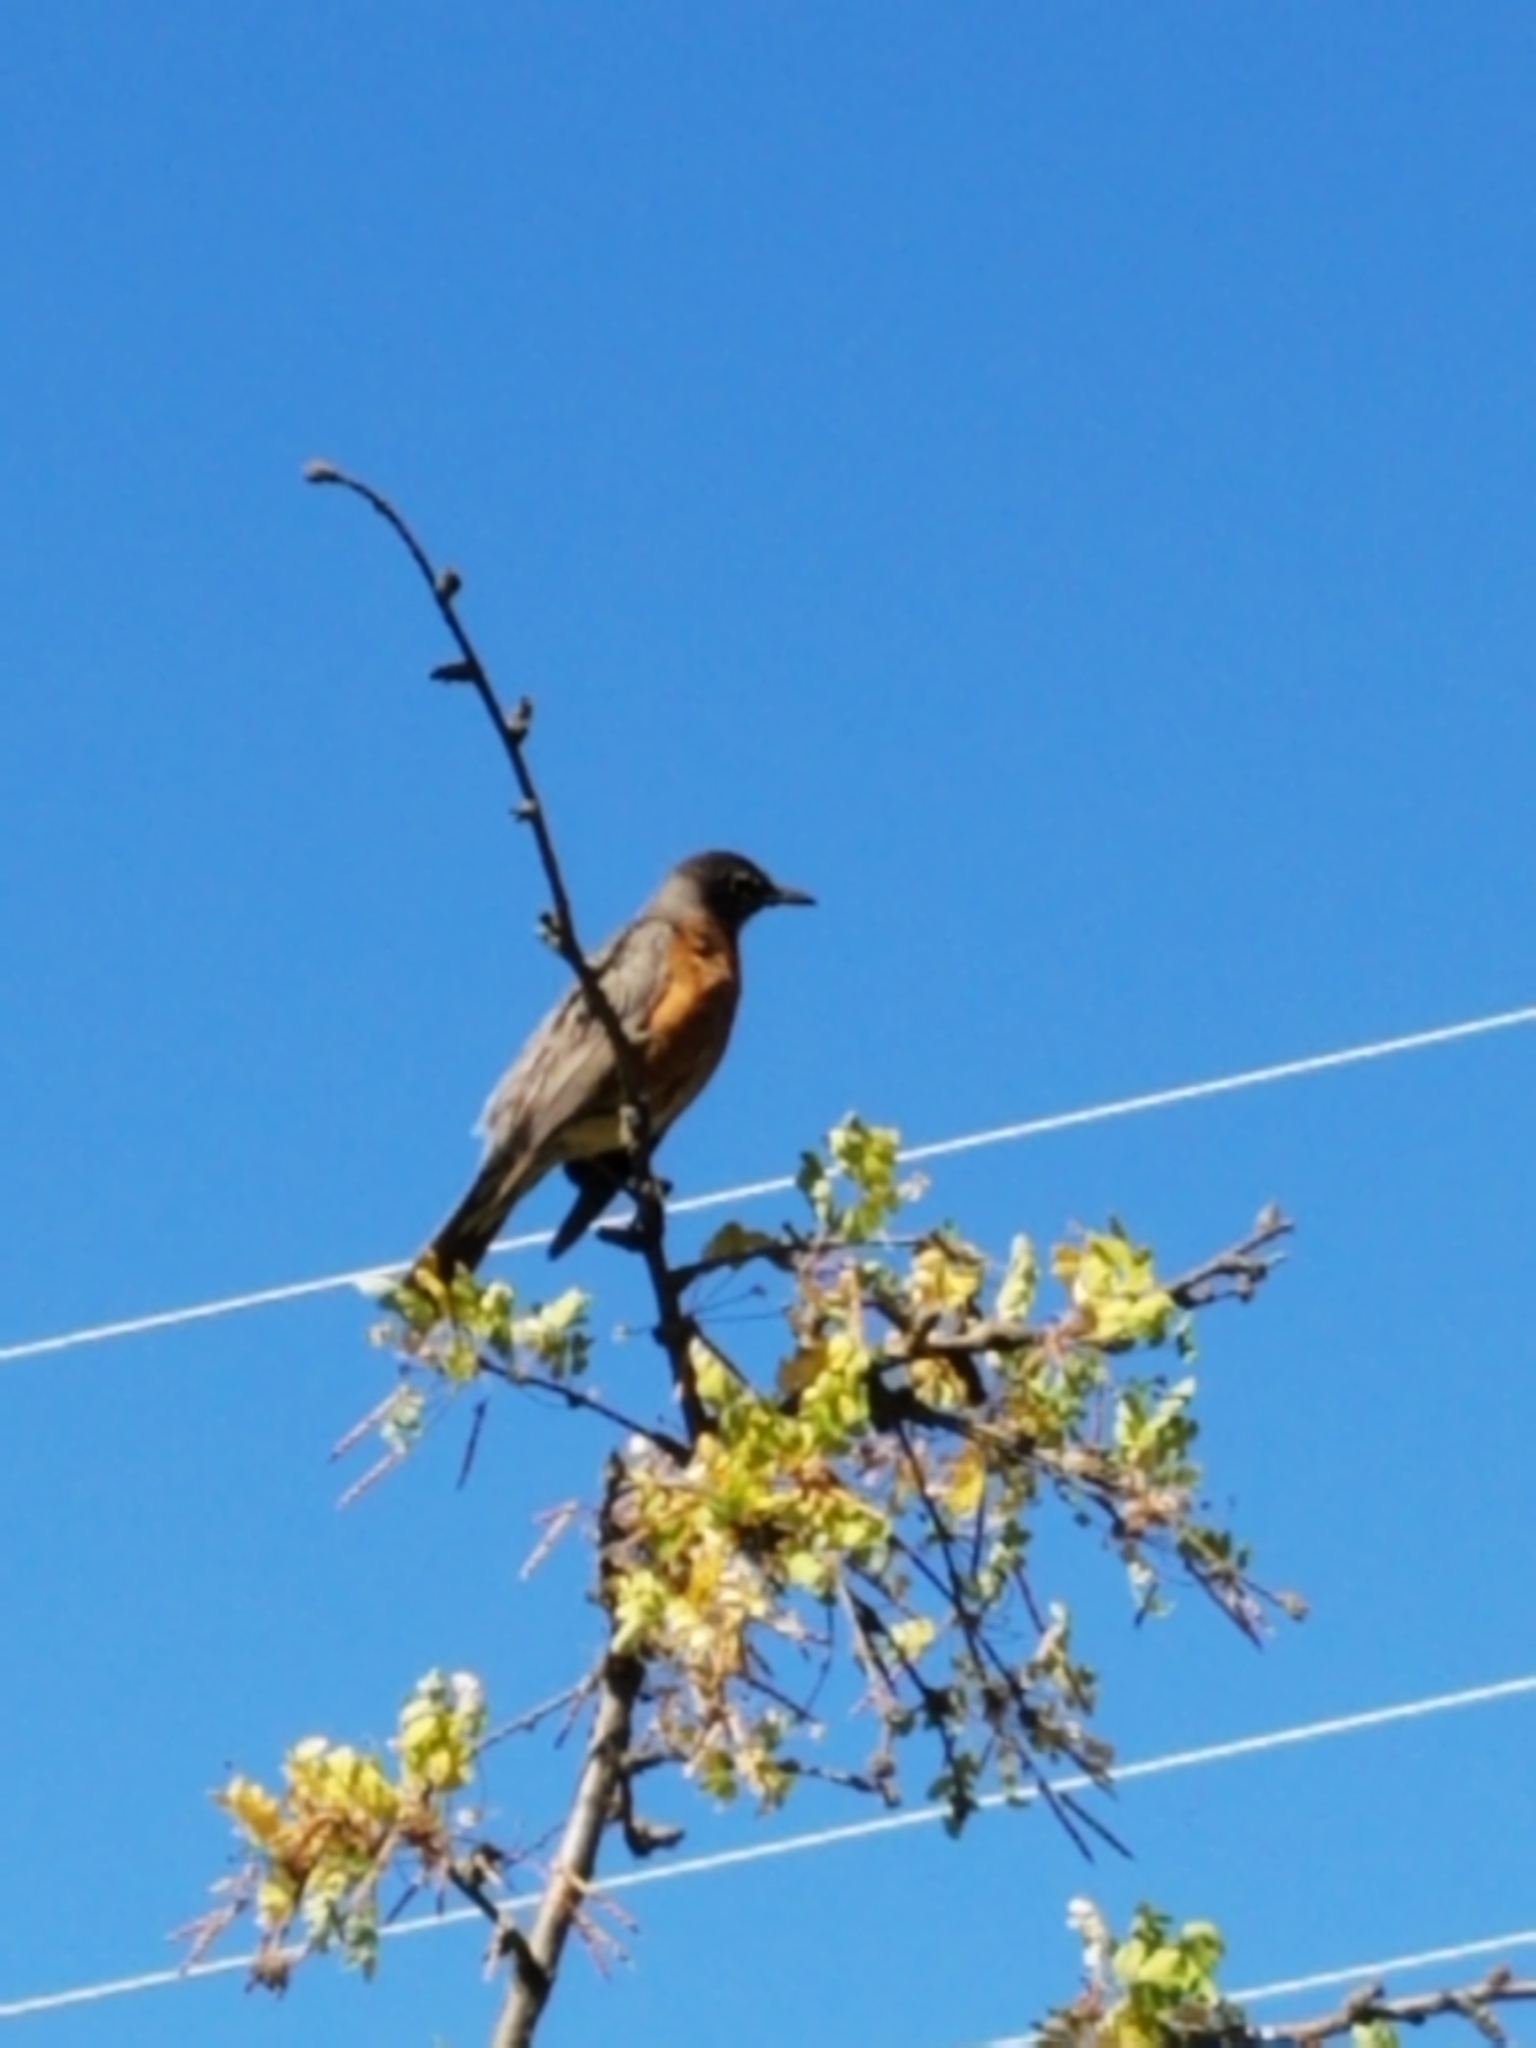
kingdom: Animalia
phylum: Chordata
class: Aves
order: Passeriformes
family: Turdidae
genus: Turdus
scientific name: Turdus migratorius
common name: American robin
